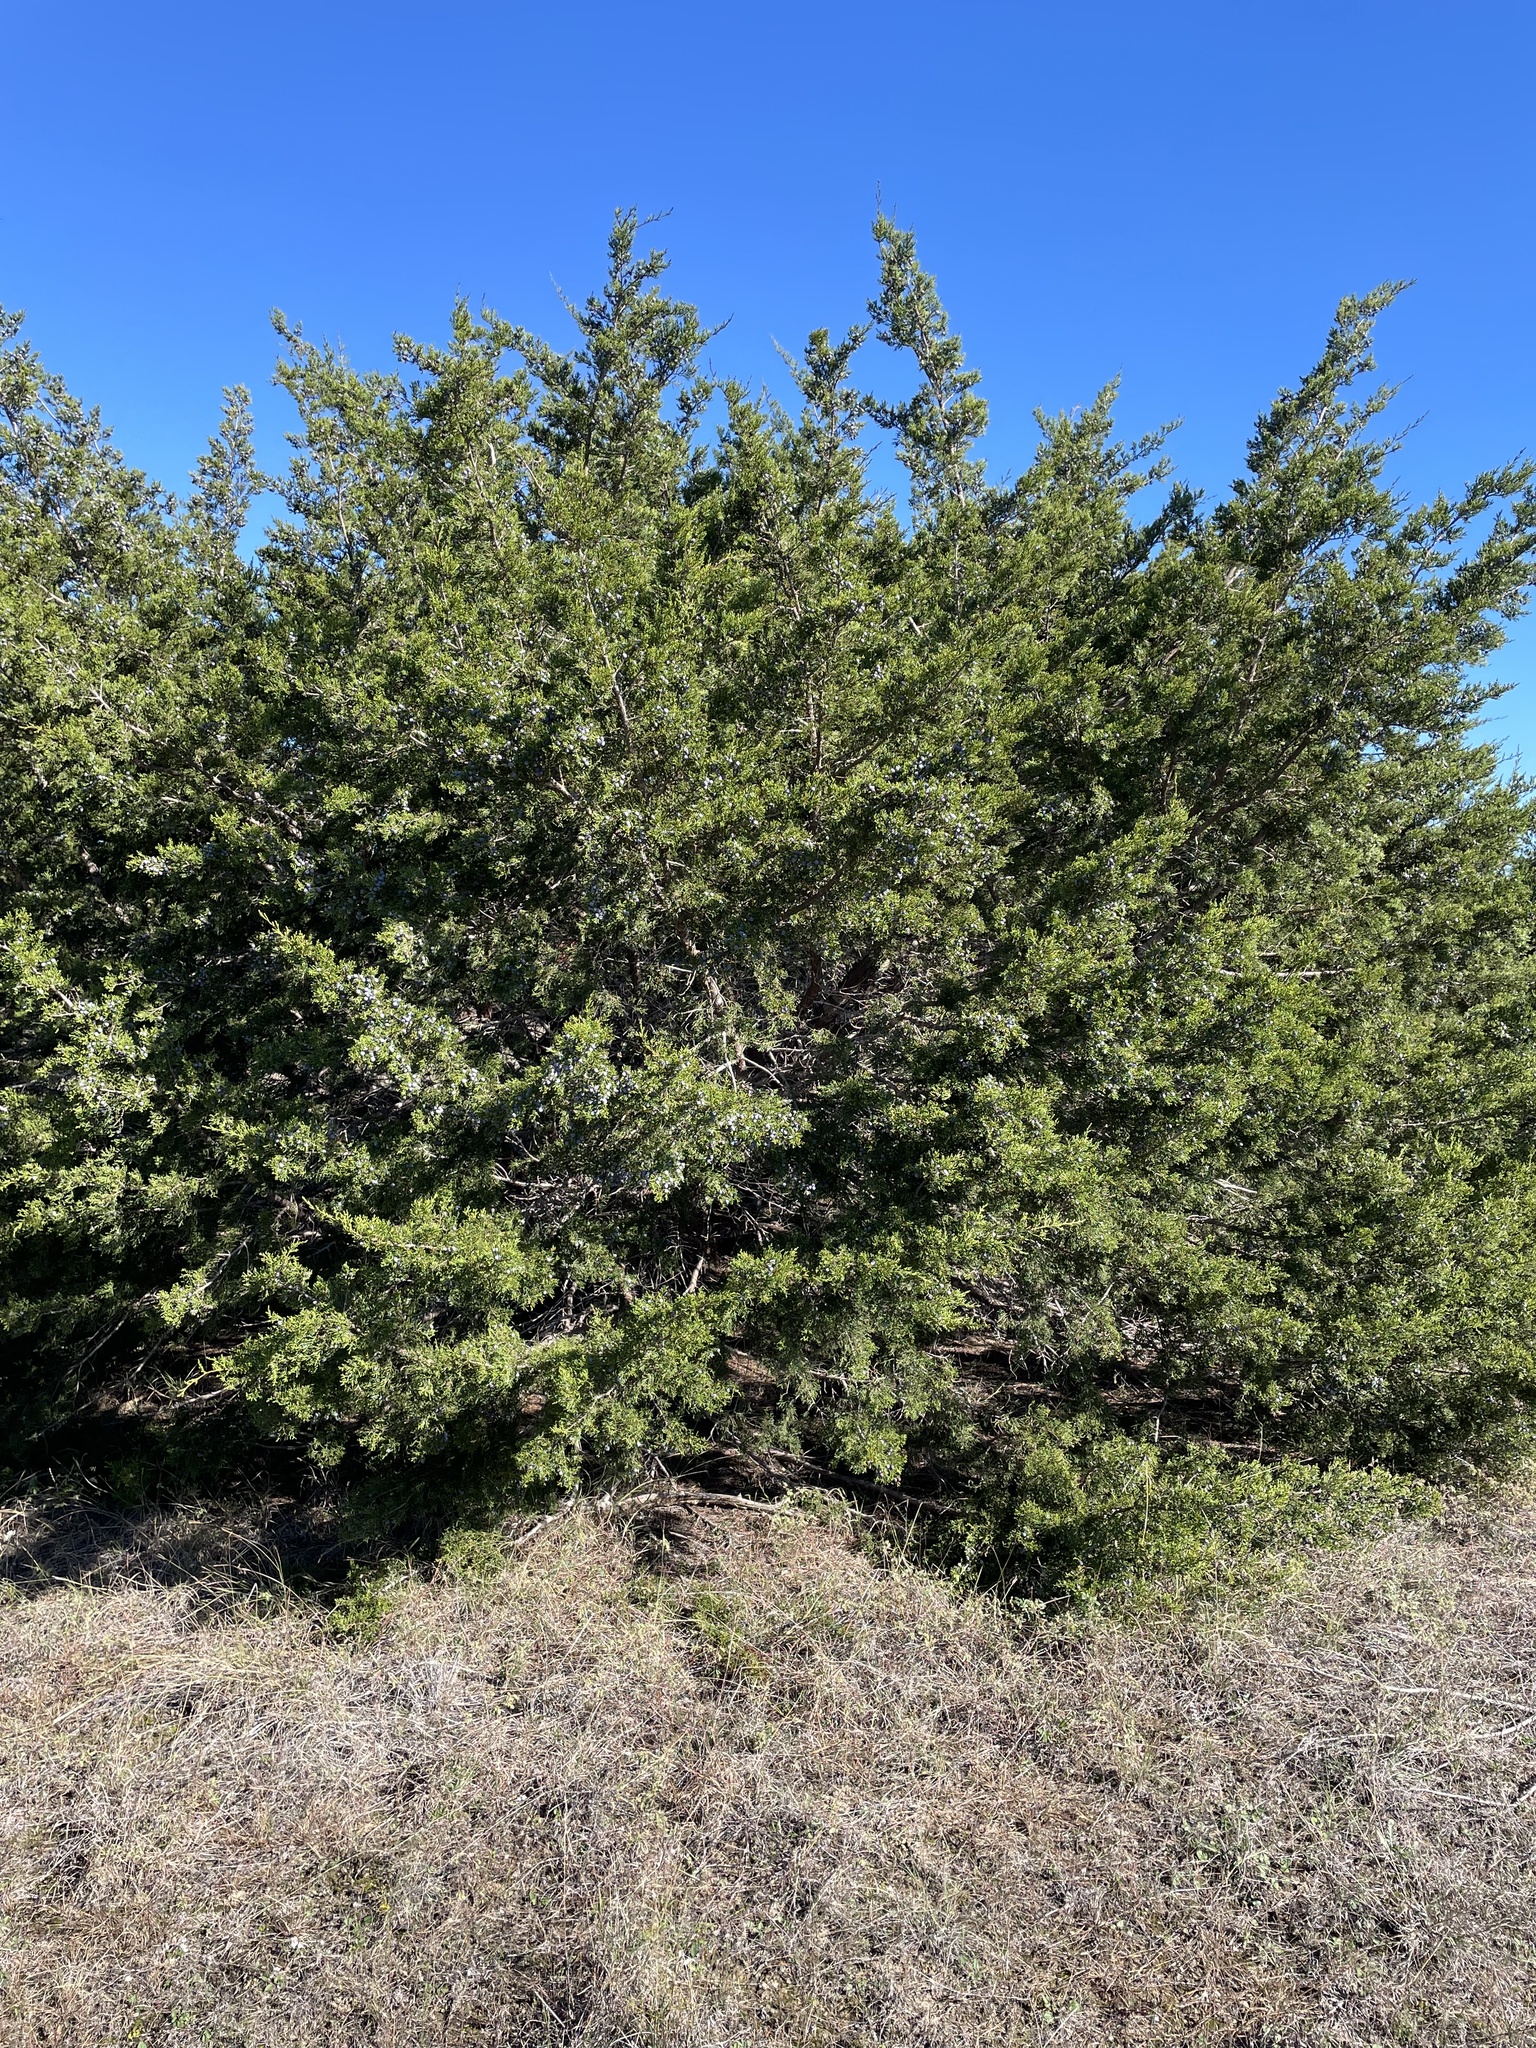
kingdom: Plantae
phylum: Tracheophyta
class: Pinopsida
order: Pinales
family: Cupressaceae
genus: Juniperus
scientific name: Juniperus ashei
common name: Mexican juniper
